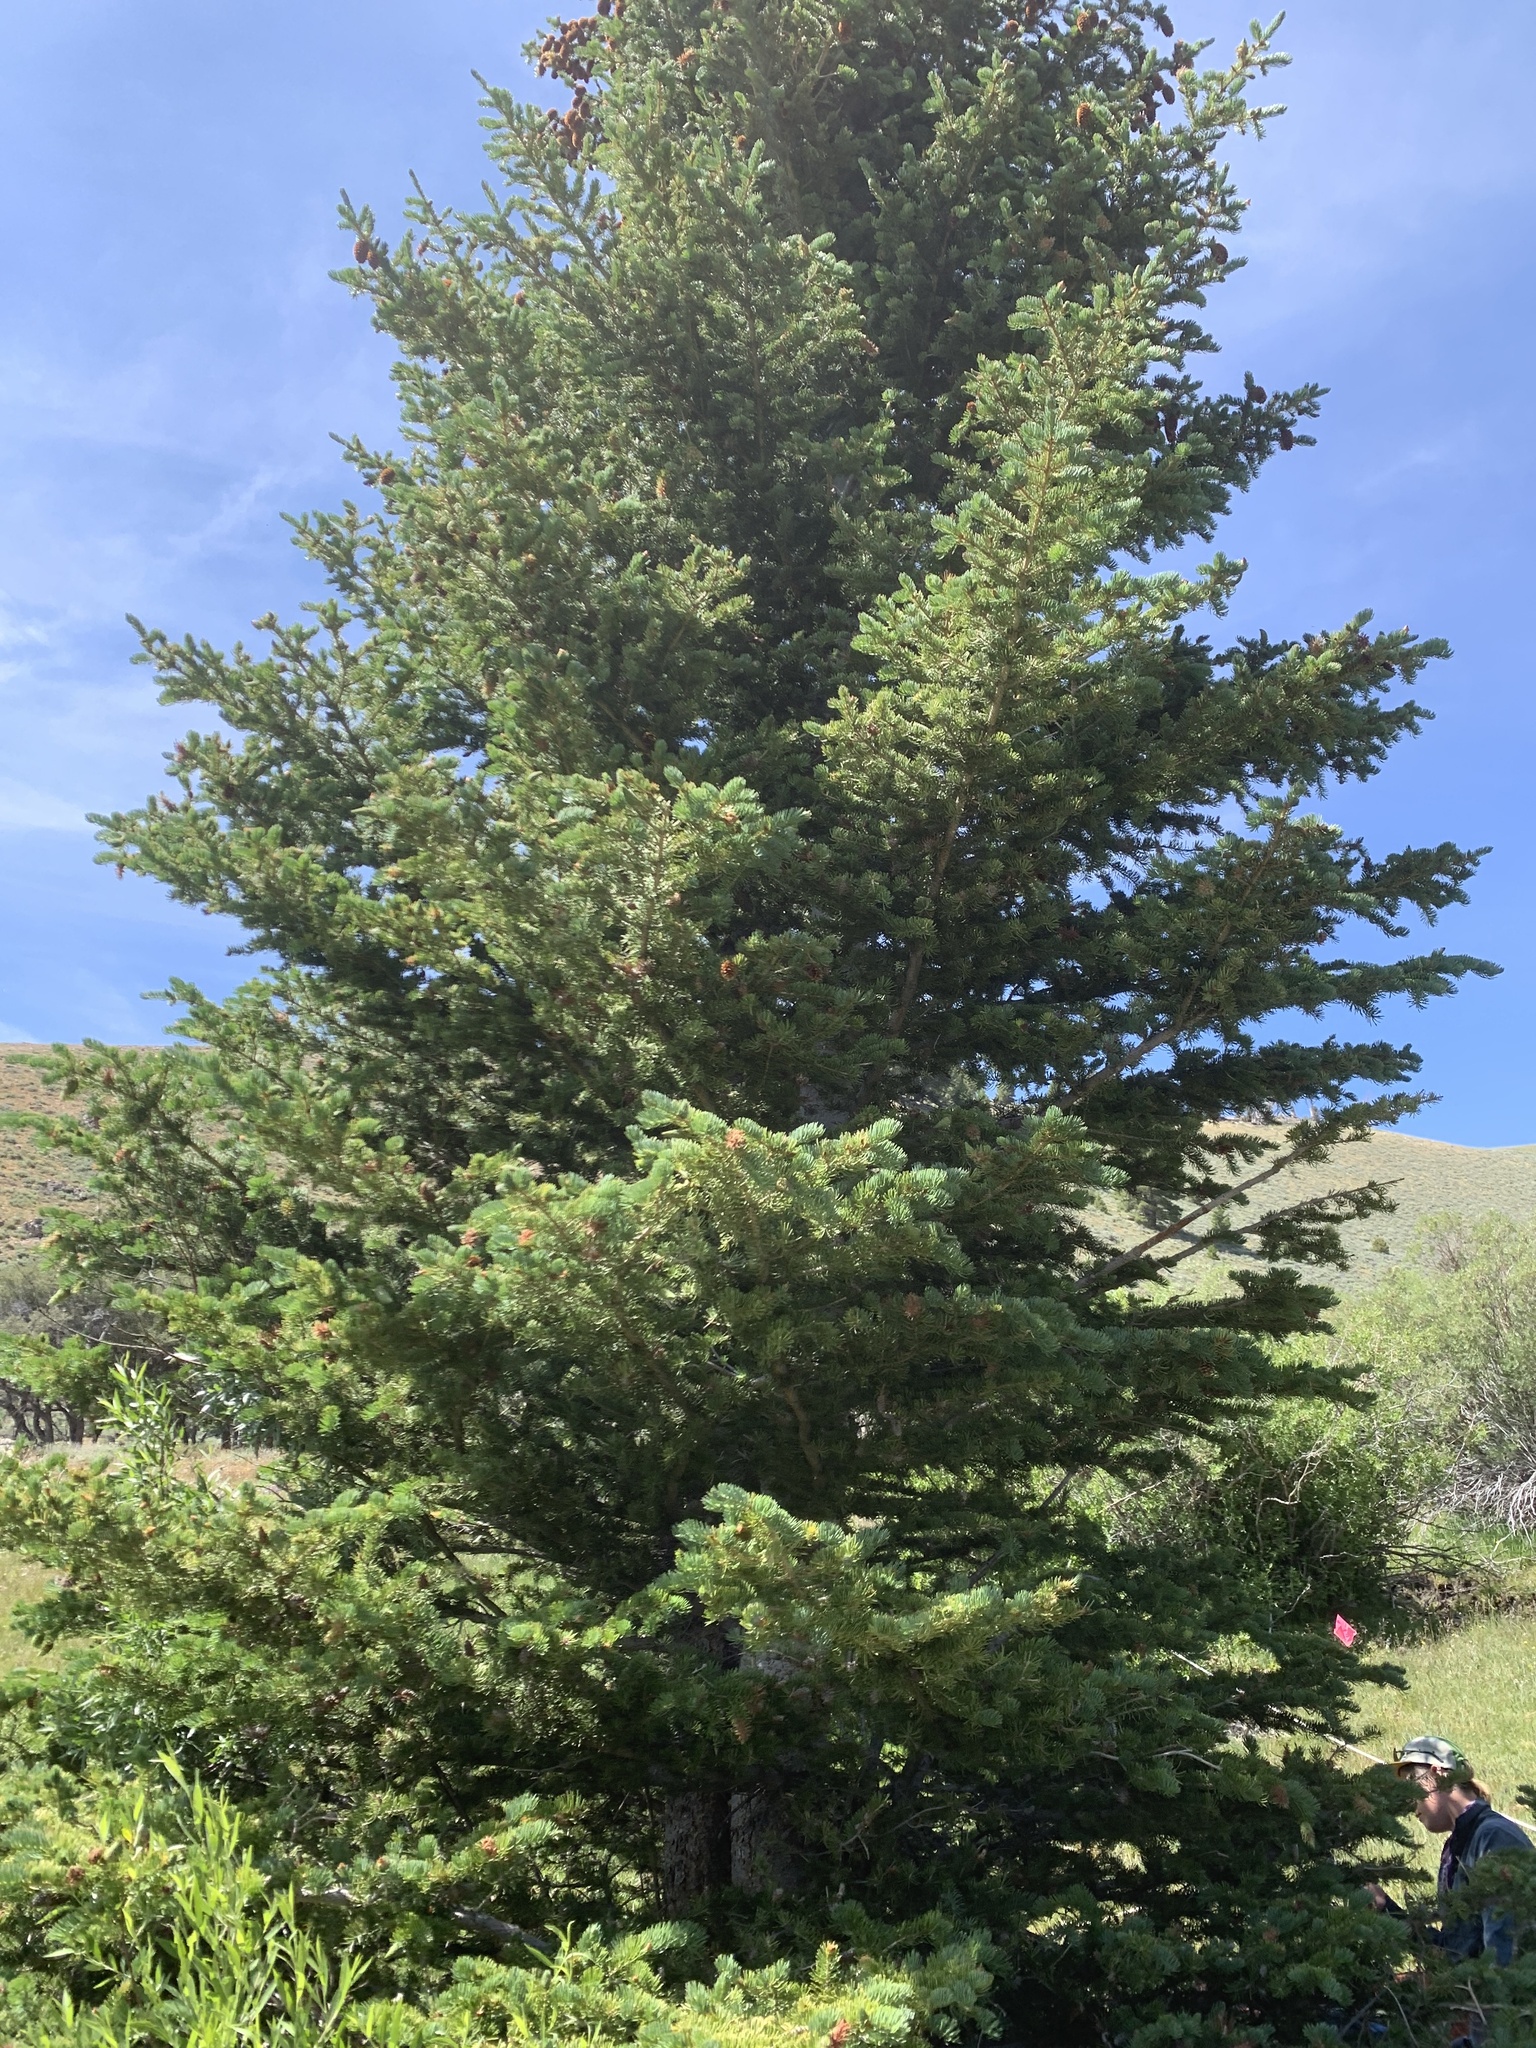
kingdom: Plantae
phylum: Tracheophyta
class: Pinopsida
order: Pinales
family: Pinaceae
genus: Picea
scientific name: Picea engelmannii
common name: Engelmann spruce
